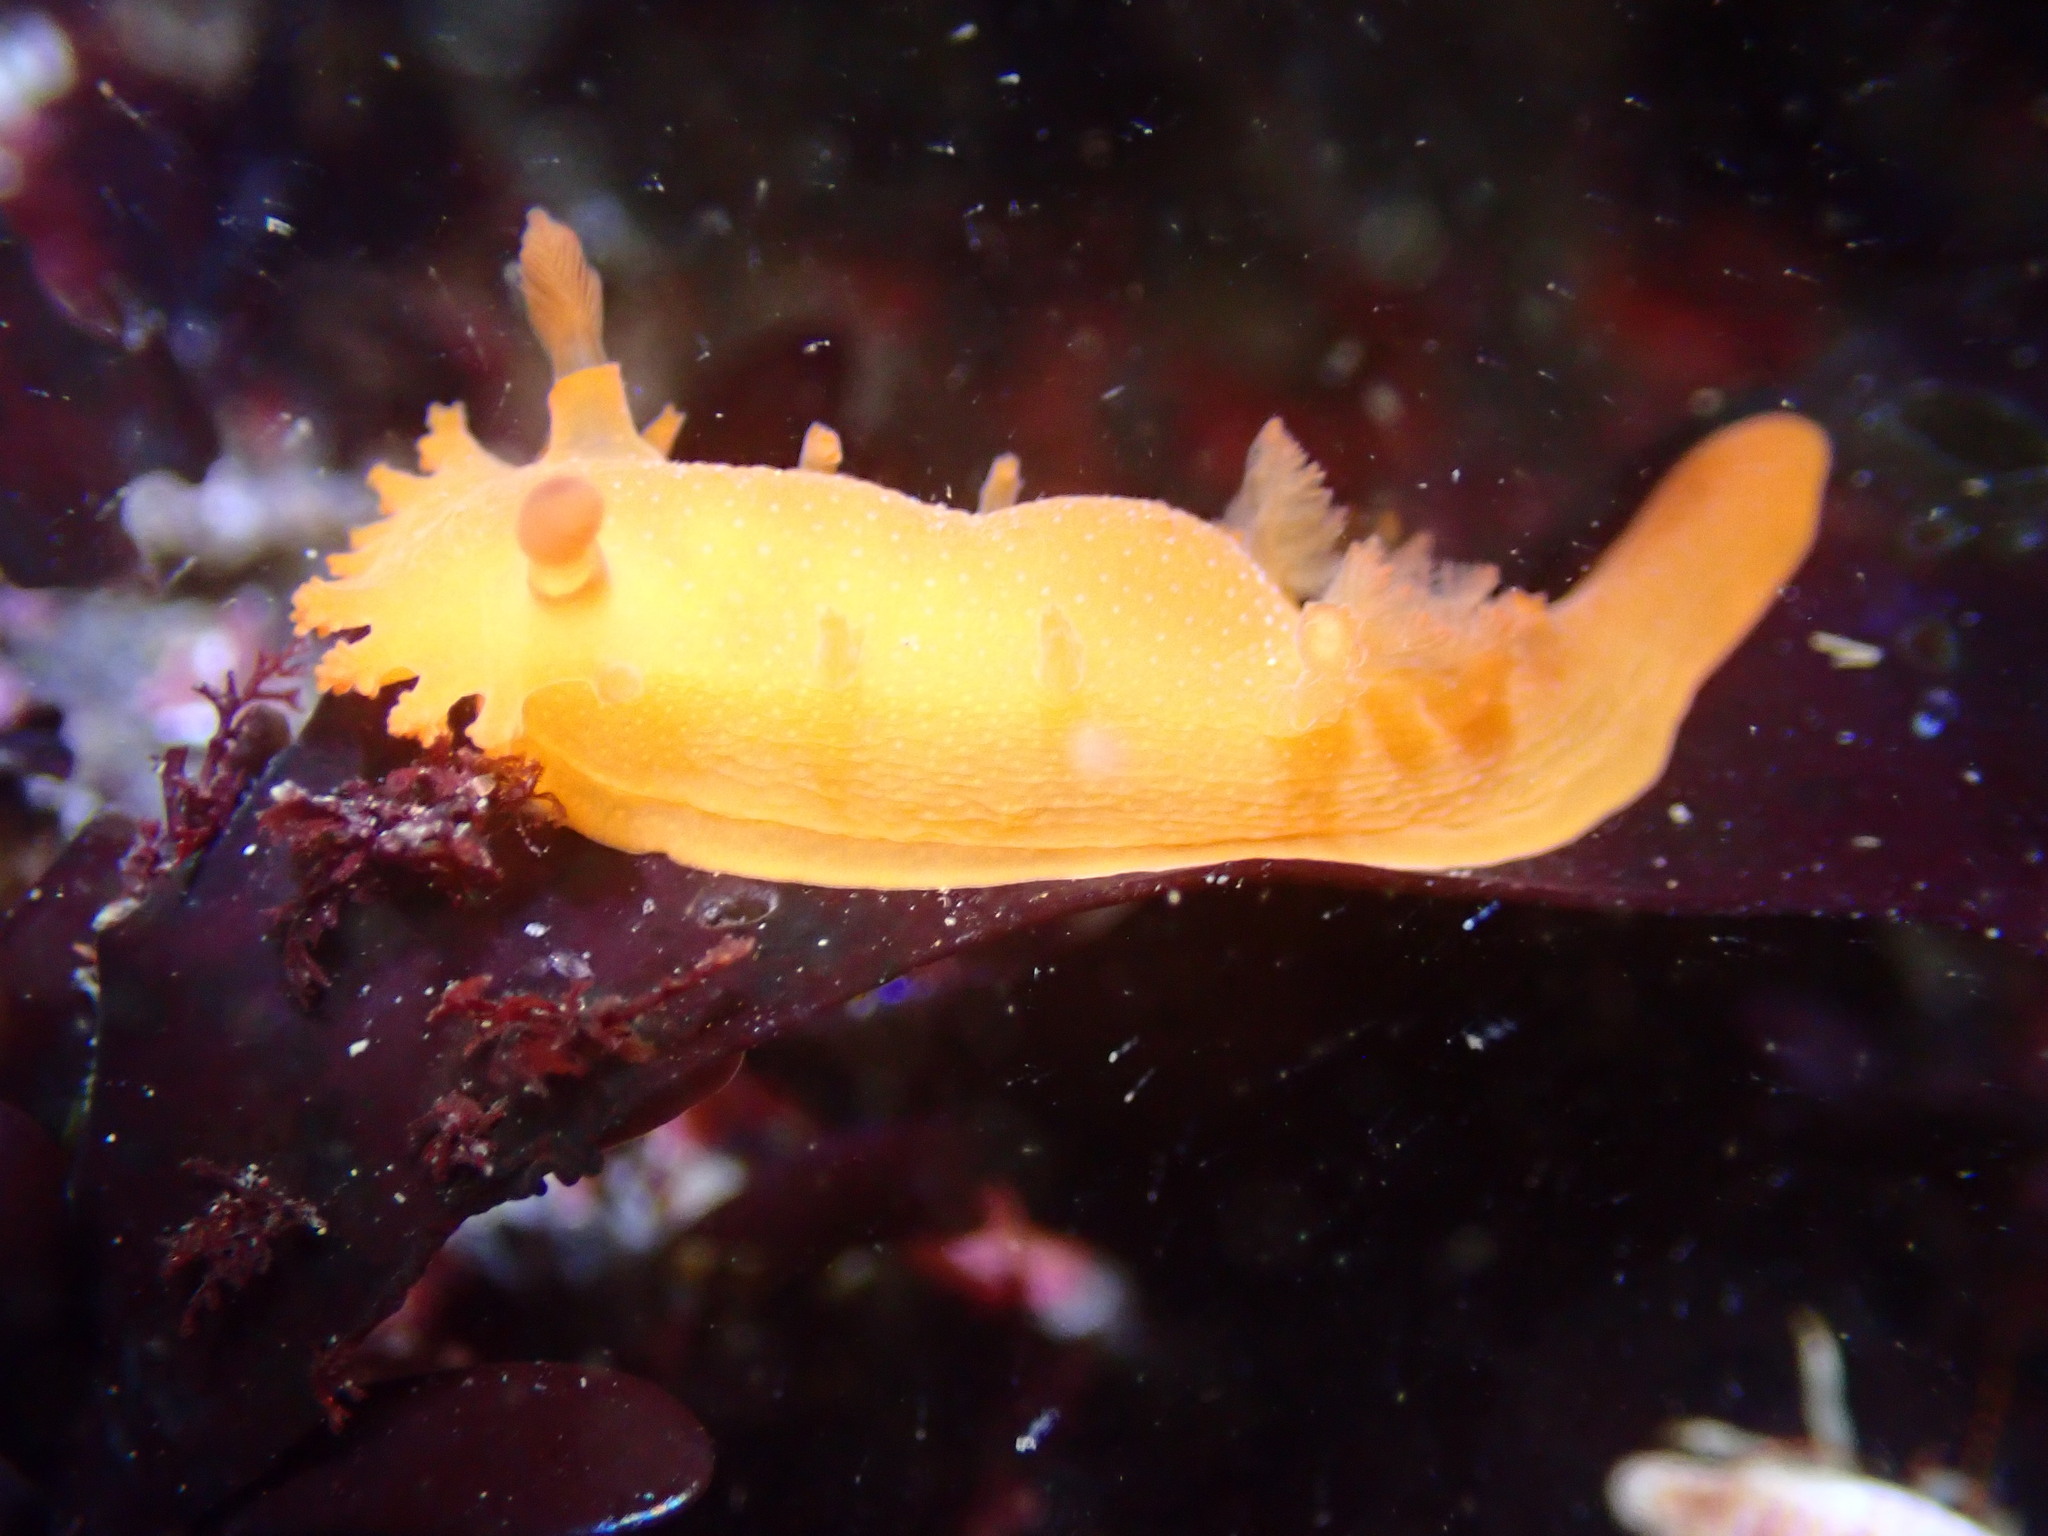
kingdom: Animalia
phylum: Mollusca
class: Gastropoda
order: Nudibranchia
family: Polyceridae
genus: Triopha
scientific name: Triopha maculata
